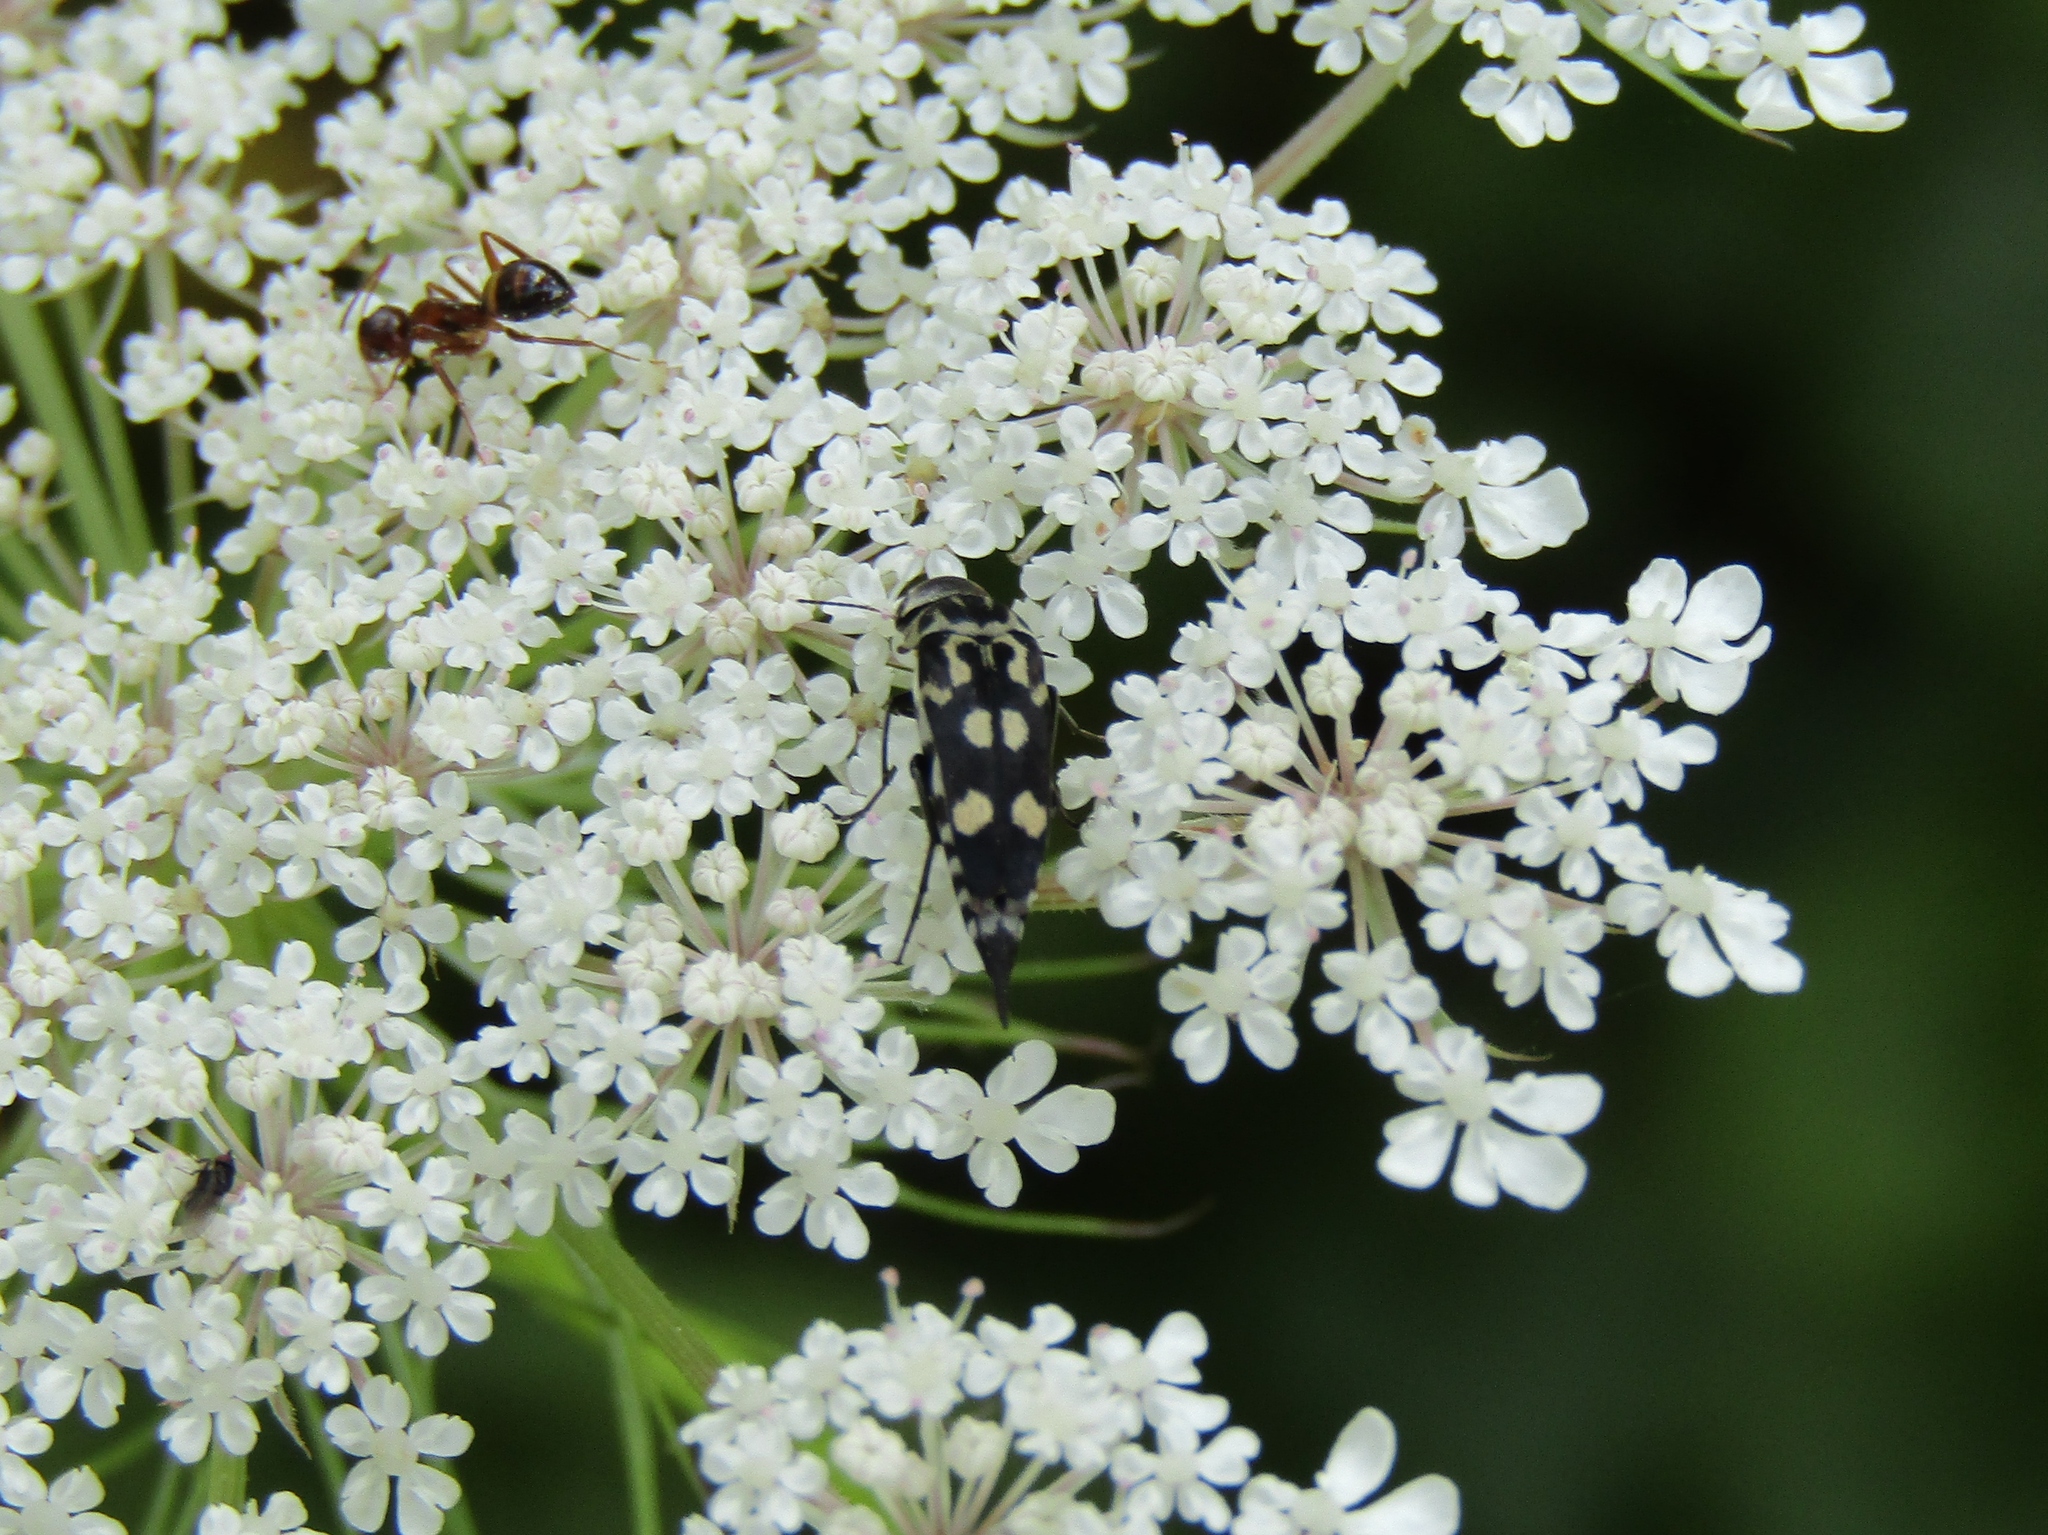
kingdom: Animalia
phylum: Arthropoda
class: Insecta
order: Coleoptera
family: Mordellidae
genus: Hoshihananomia
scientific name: Hoshihananomia octopunctata
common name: Eight-spotted tumbling flower beetle
